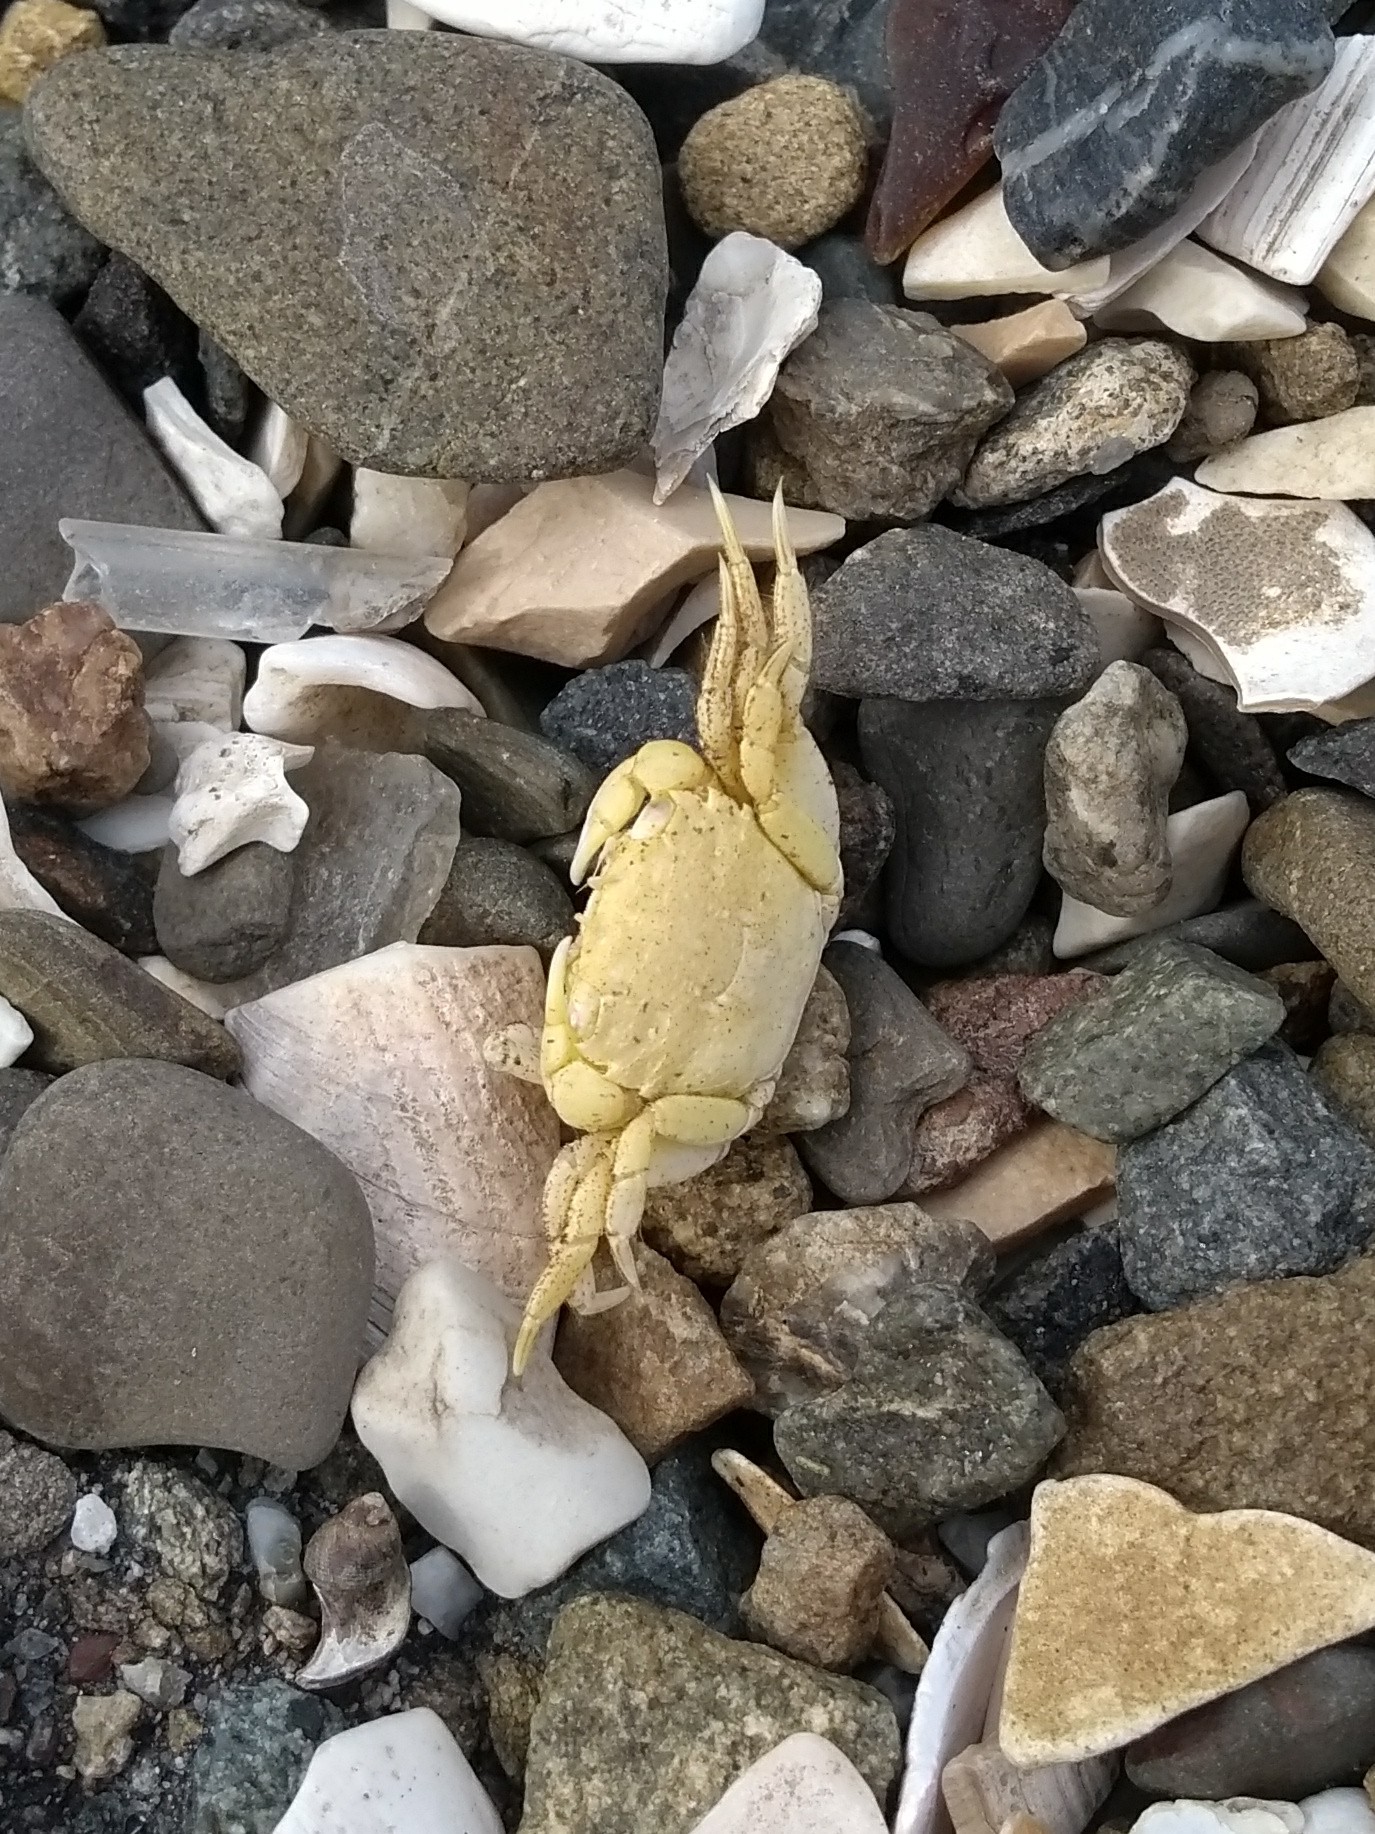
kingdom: Animalia
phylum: Arthropoda
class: Malacostraca
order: Decapoda
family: Varunidae
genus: Hemigrapsus
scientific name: Hemigrapsus oregonensis
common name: Yellow shore crab
